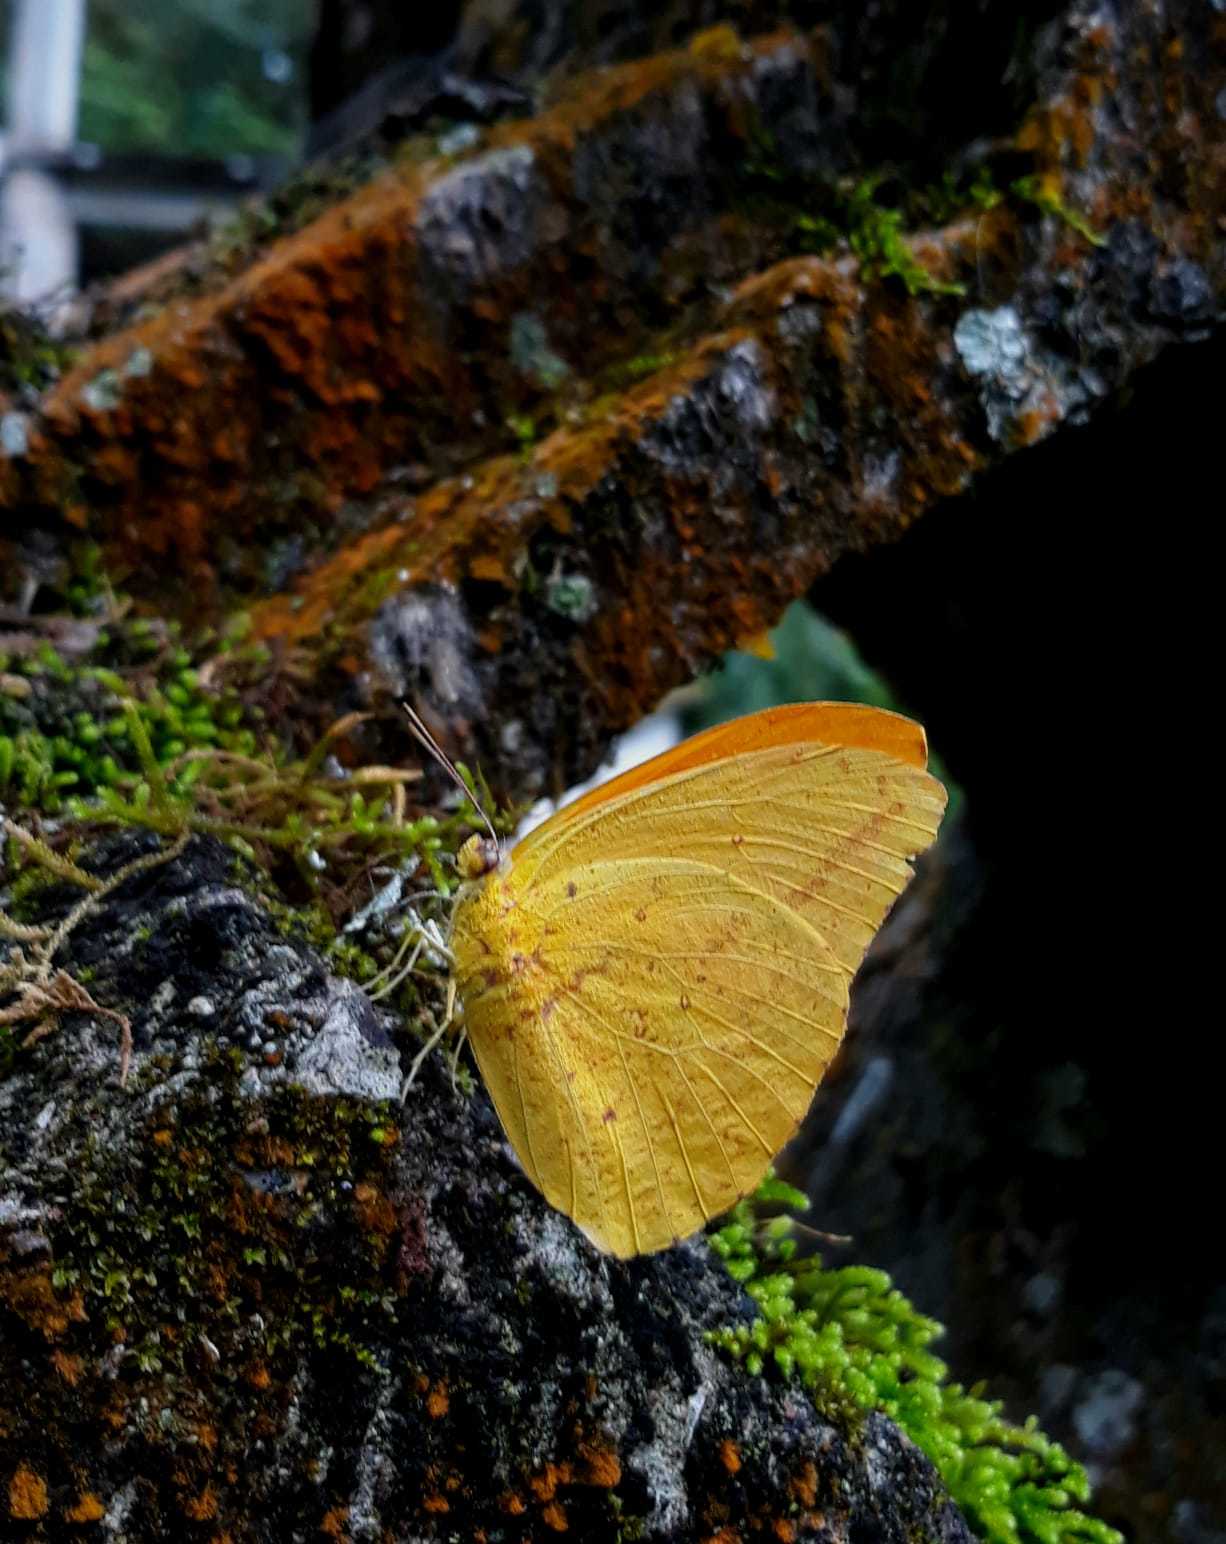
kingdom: Animalia
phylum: Arthropoda
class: Insecta
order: Lepidoptera
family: Pieridae
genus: Phoebis
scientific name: Phoebis agarithe
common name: Large orange sulphur
